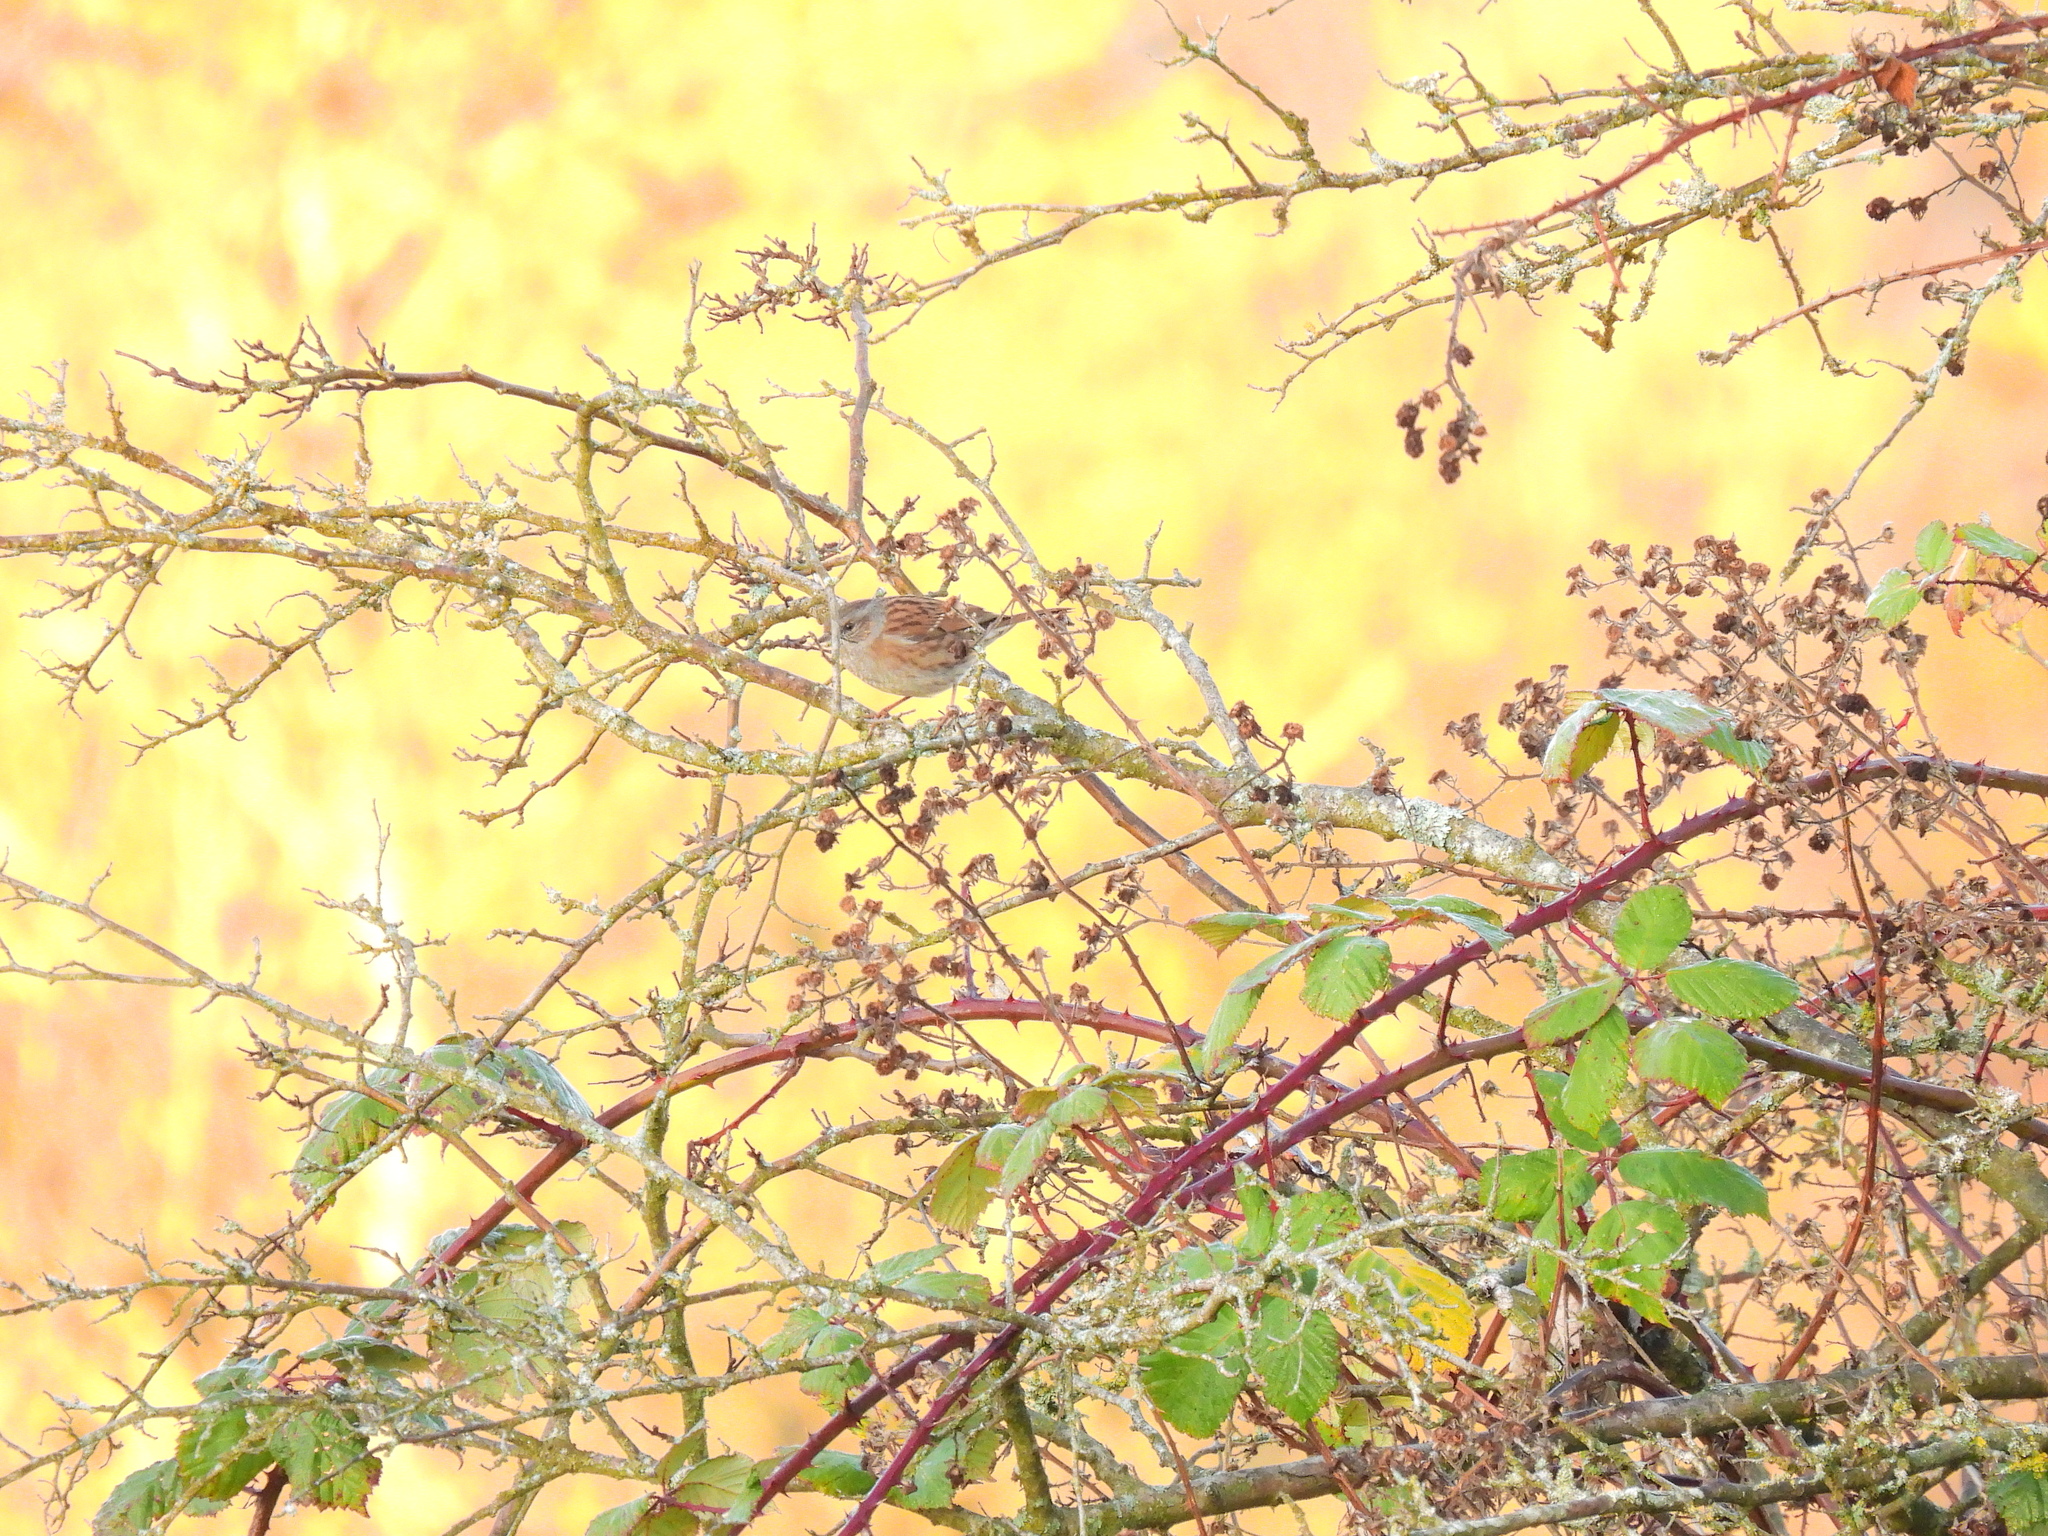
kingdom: Animalia
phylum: Chordata
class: Aves
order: Passeriformes
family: Prunellidae
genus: Prunella
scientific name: Prunella modularis
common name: Dunnock
